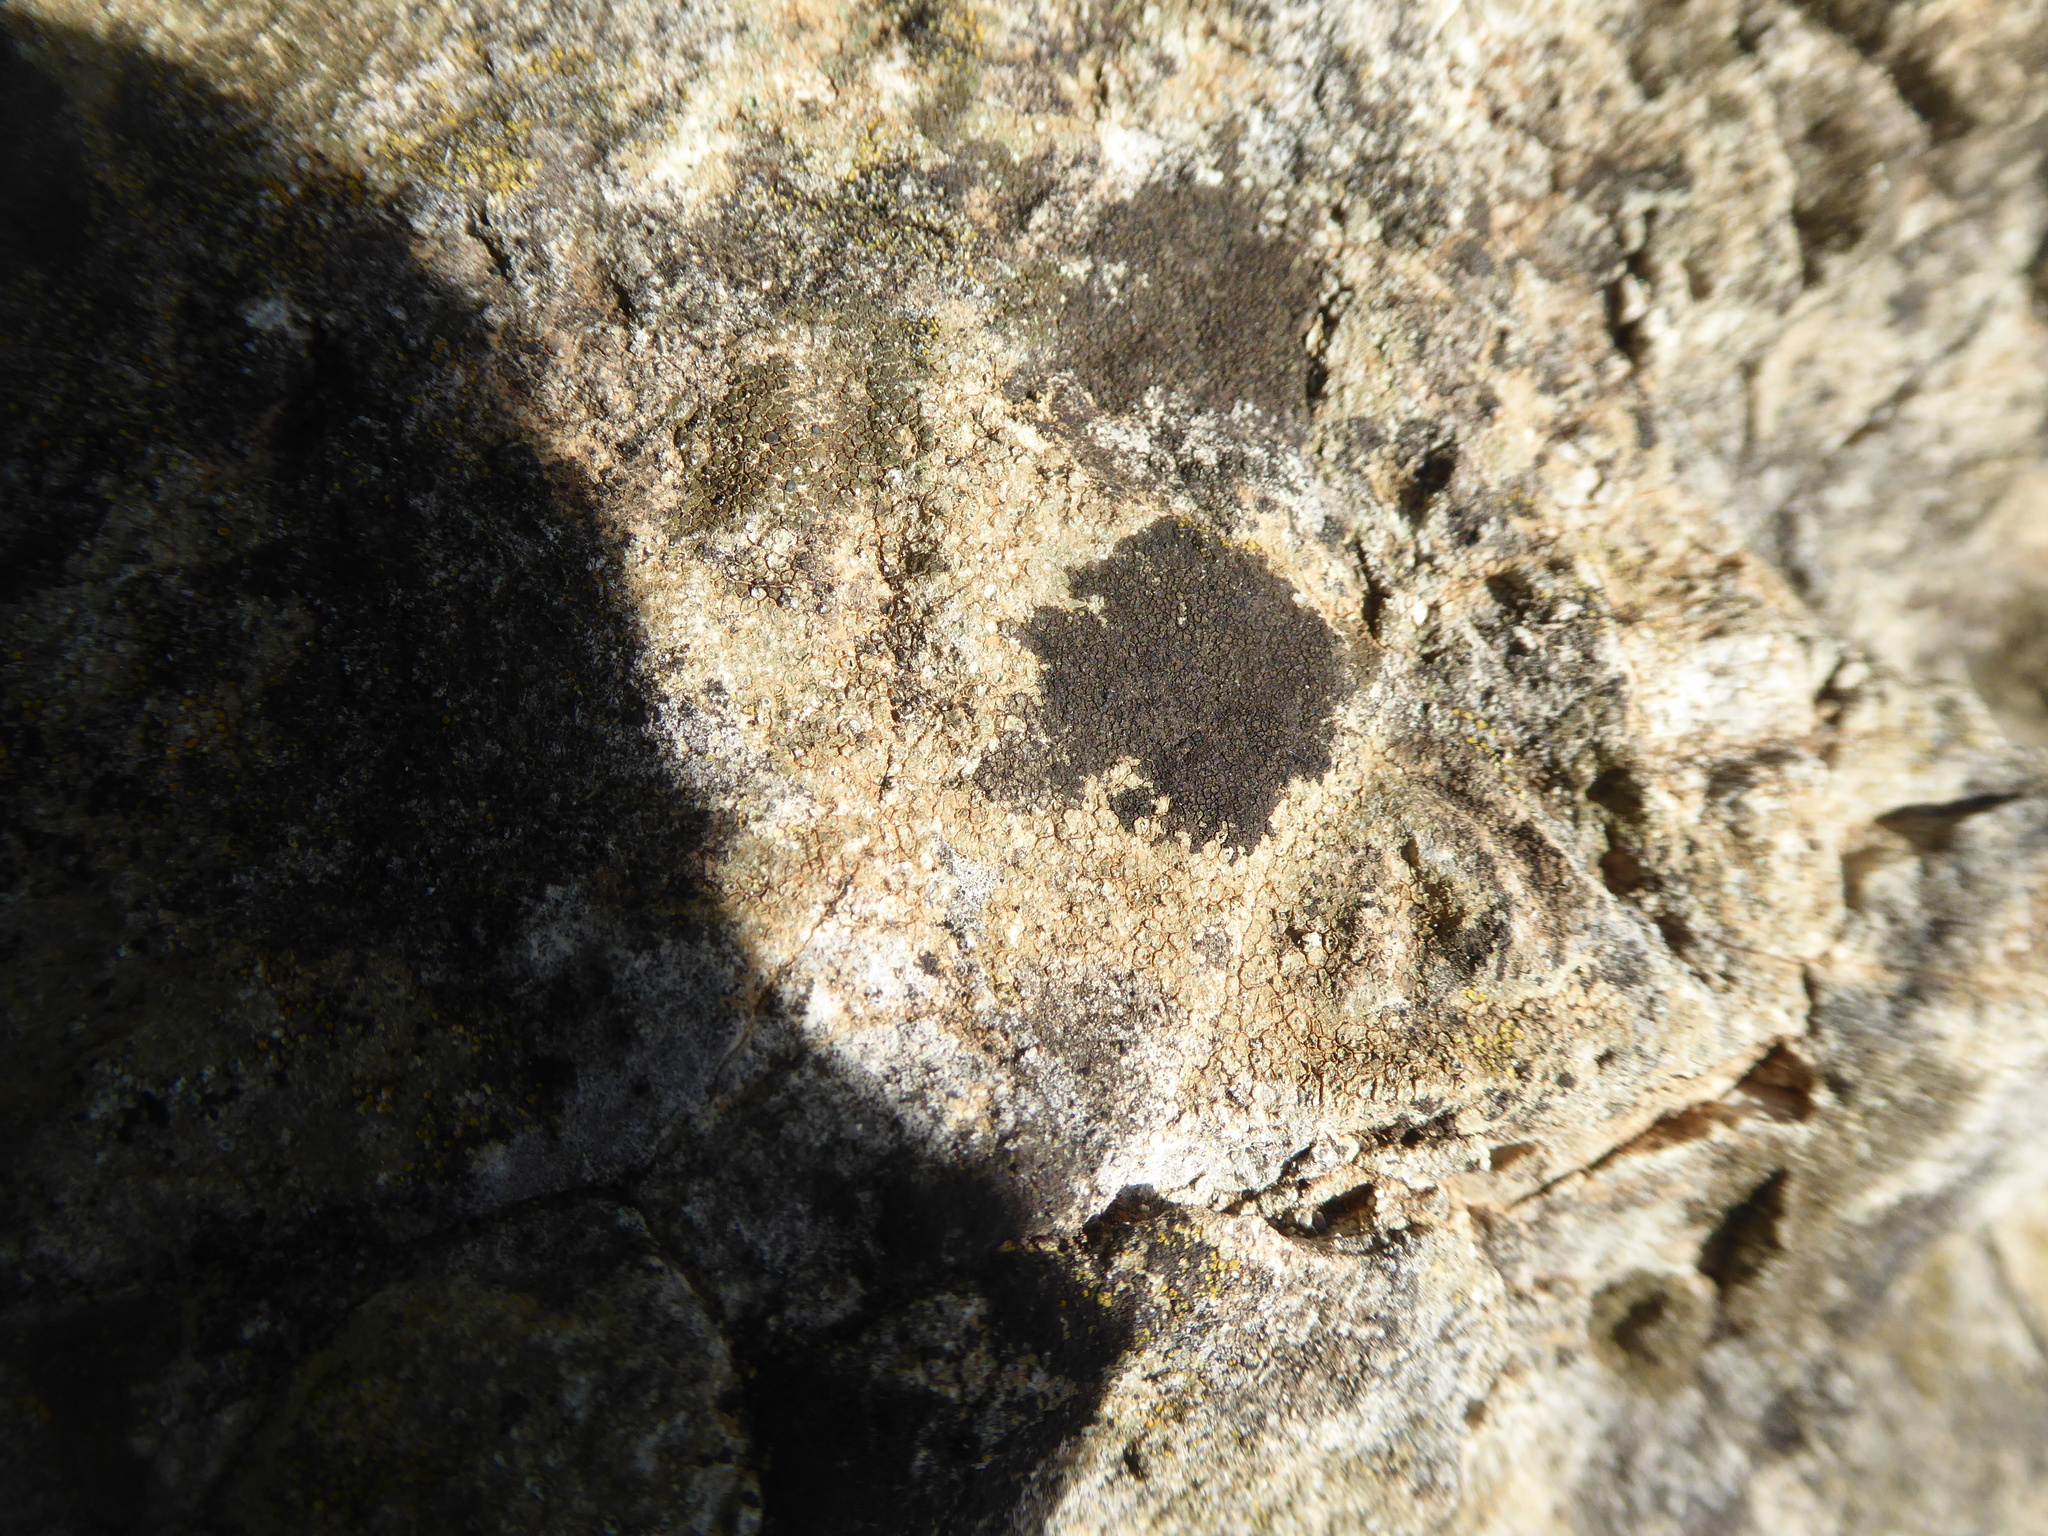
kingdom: Fungi
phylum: Ascomycota
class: Lecanoromycetes
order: Lecanorales
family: Parmeliaceae
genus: Xanthoparmelia
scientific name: Xanthoparmelia loxodes
